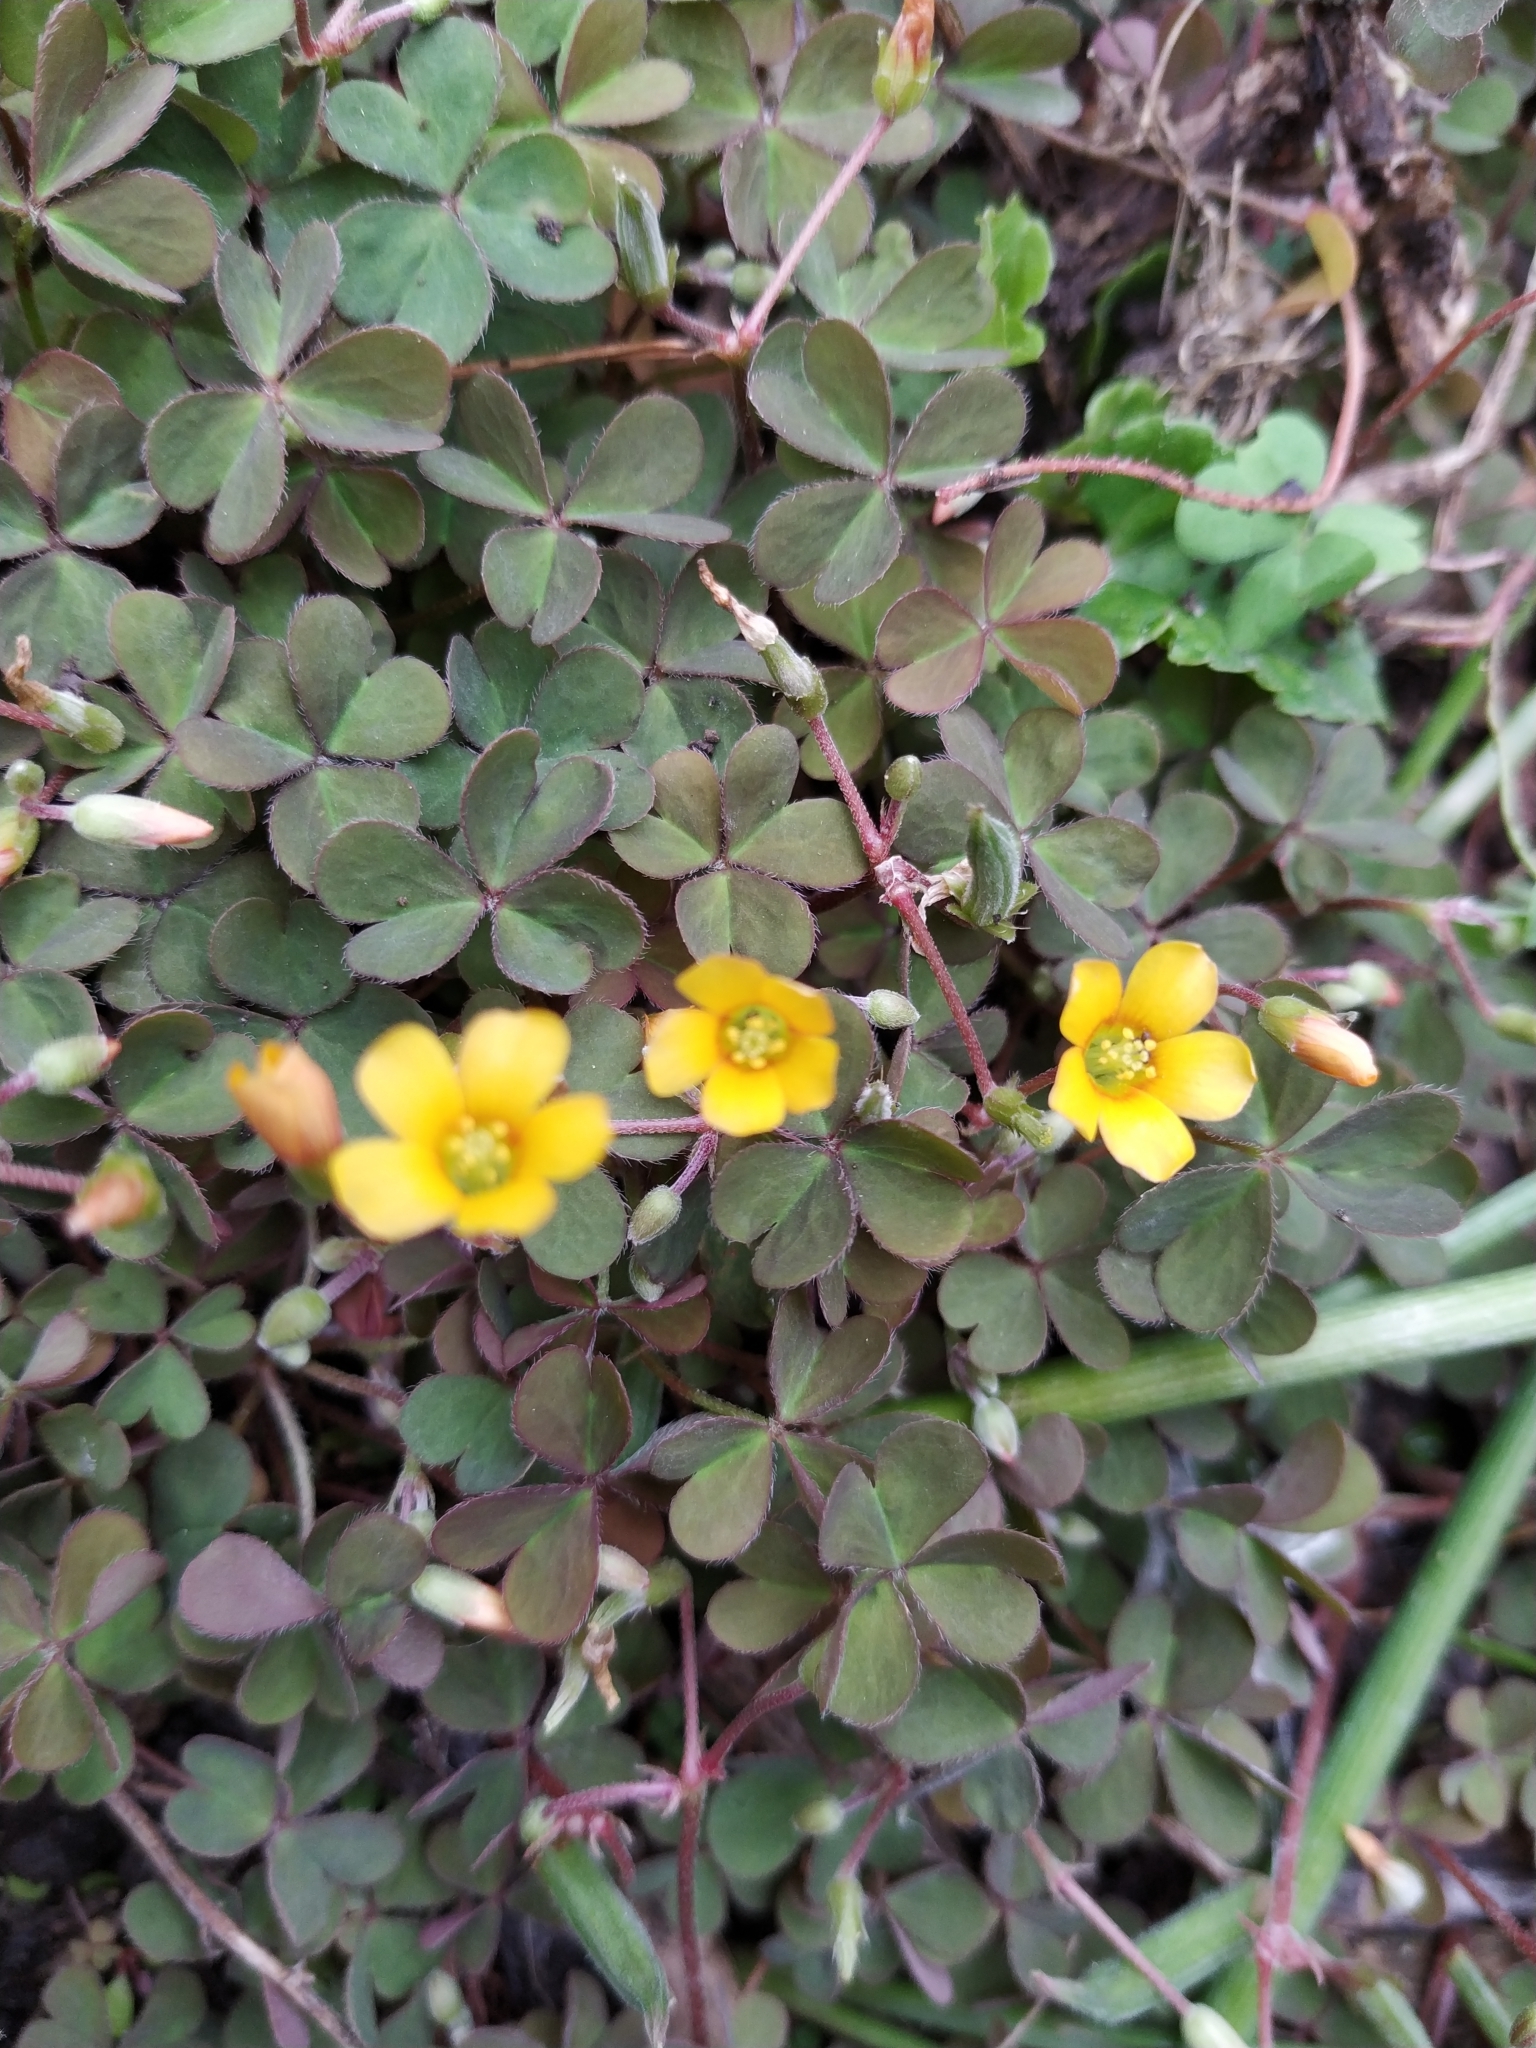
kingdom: Plantae
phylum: Tracheophyta
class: Magnoliopsida
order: Oxalidales
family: Oxalidaceae
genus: Oxalis
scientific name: Oxalis corniculata
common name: Procumbent yellow-sorrel
